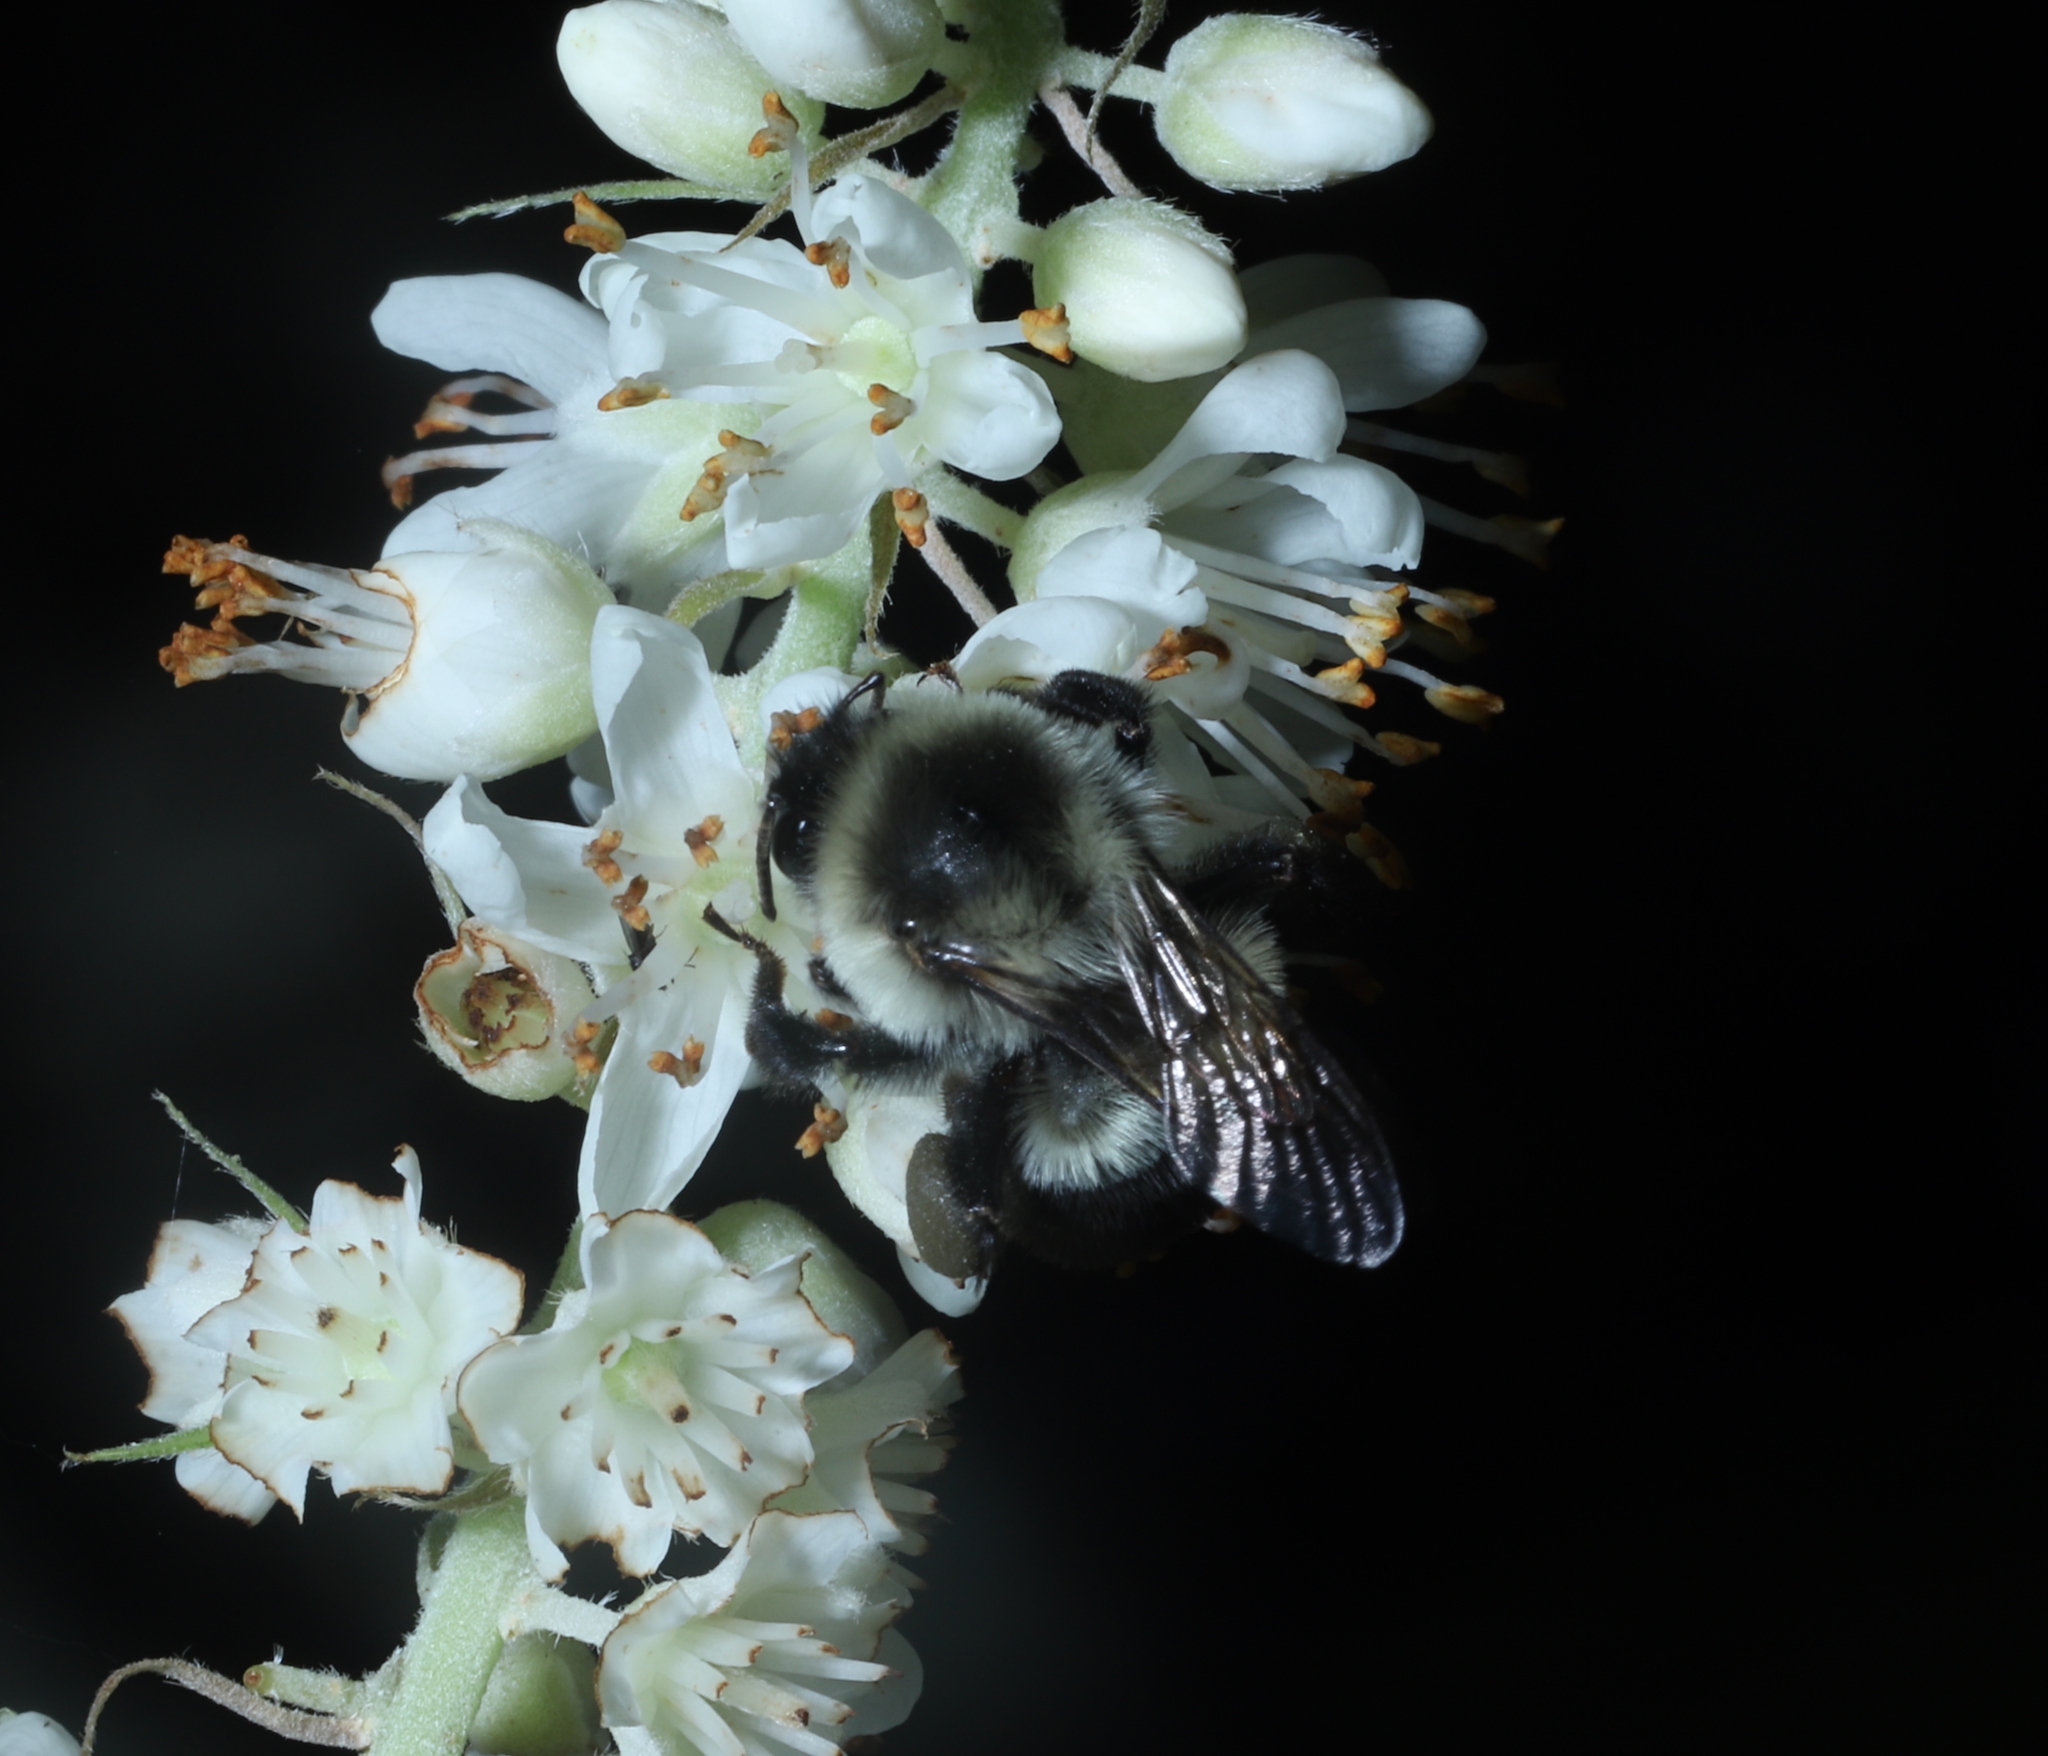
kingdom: Animalia
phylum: Arthropoda
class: Insecta
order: Hymenoptera
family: Apidae
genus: Bombus
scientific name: Bombus impatiens
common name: Common eastern bumble bee
